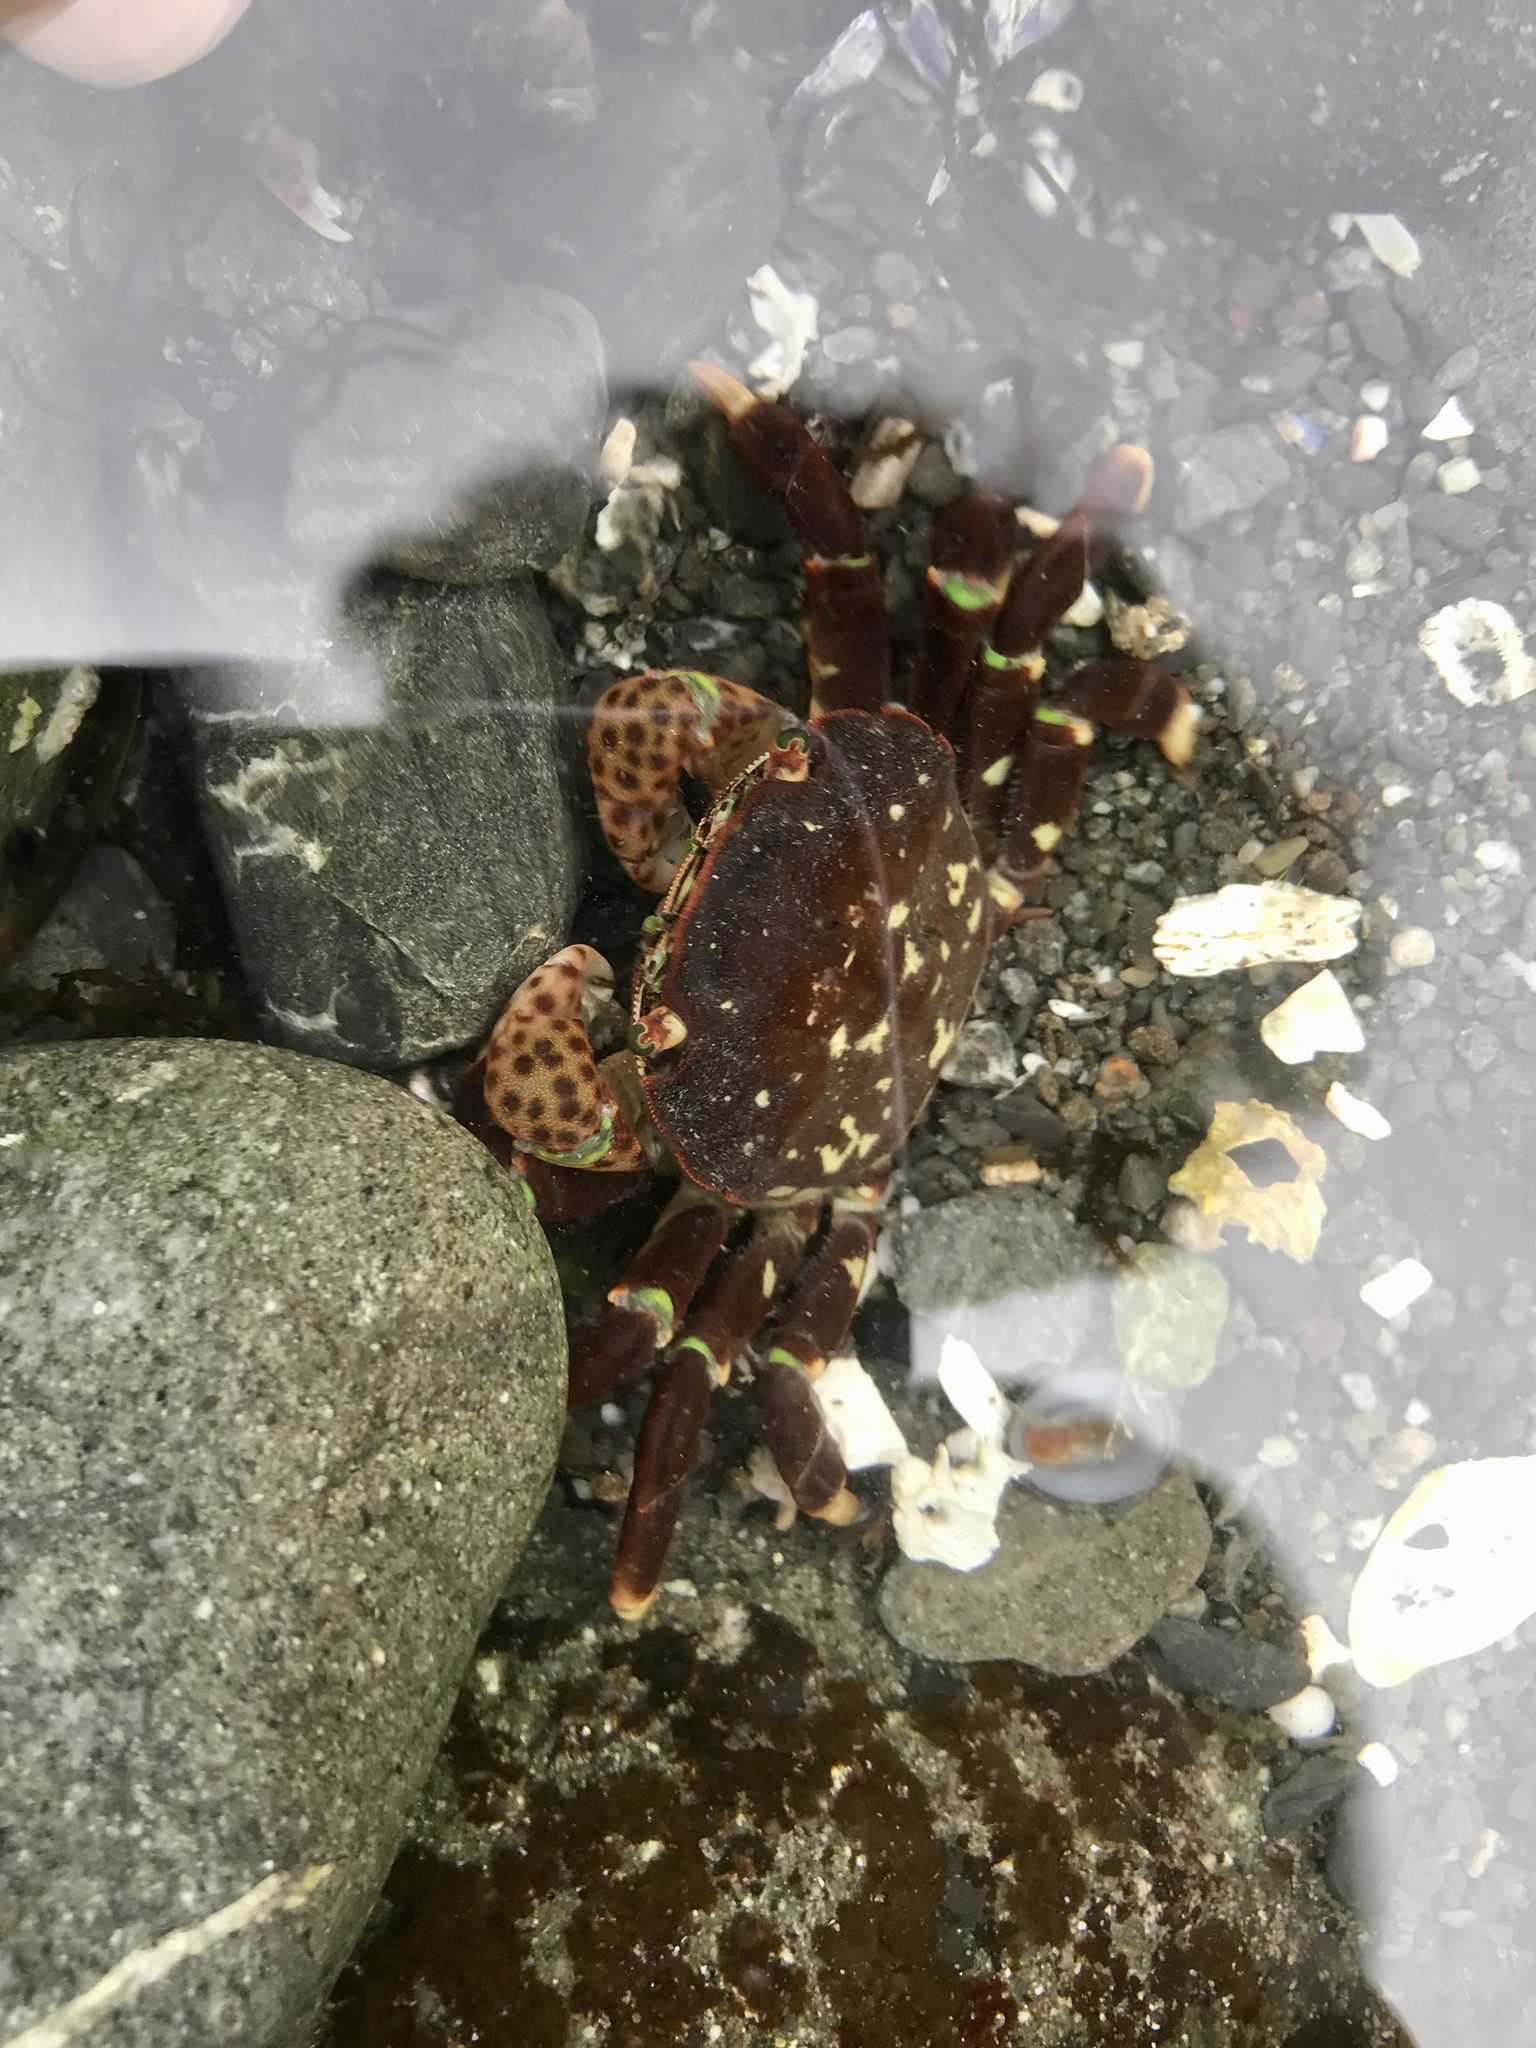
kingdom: Animalia
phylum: Arthropoda
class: Malacostraca
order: Decapoda
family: Varunidae
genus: Hemigrapsus
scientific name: Hemigrapsus nudus
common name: Purple shore crab
